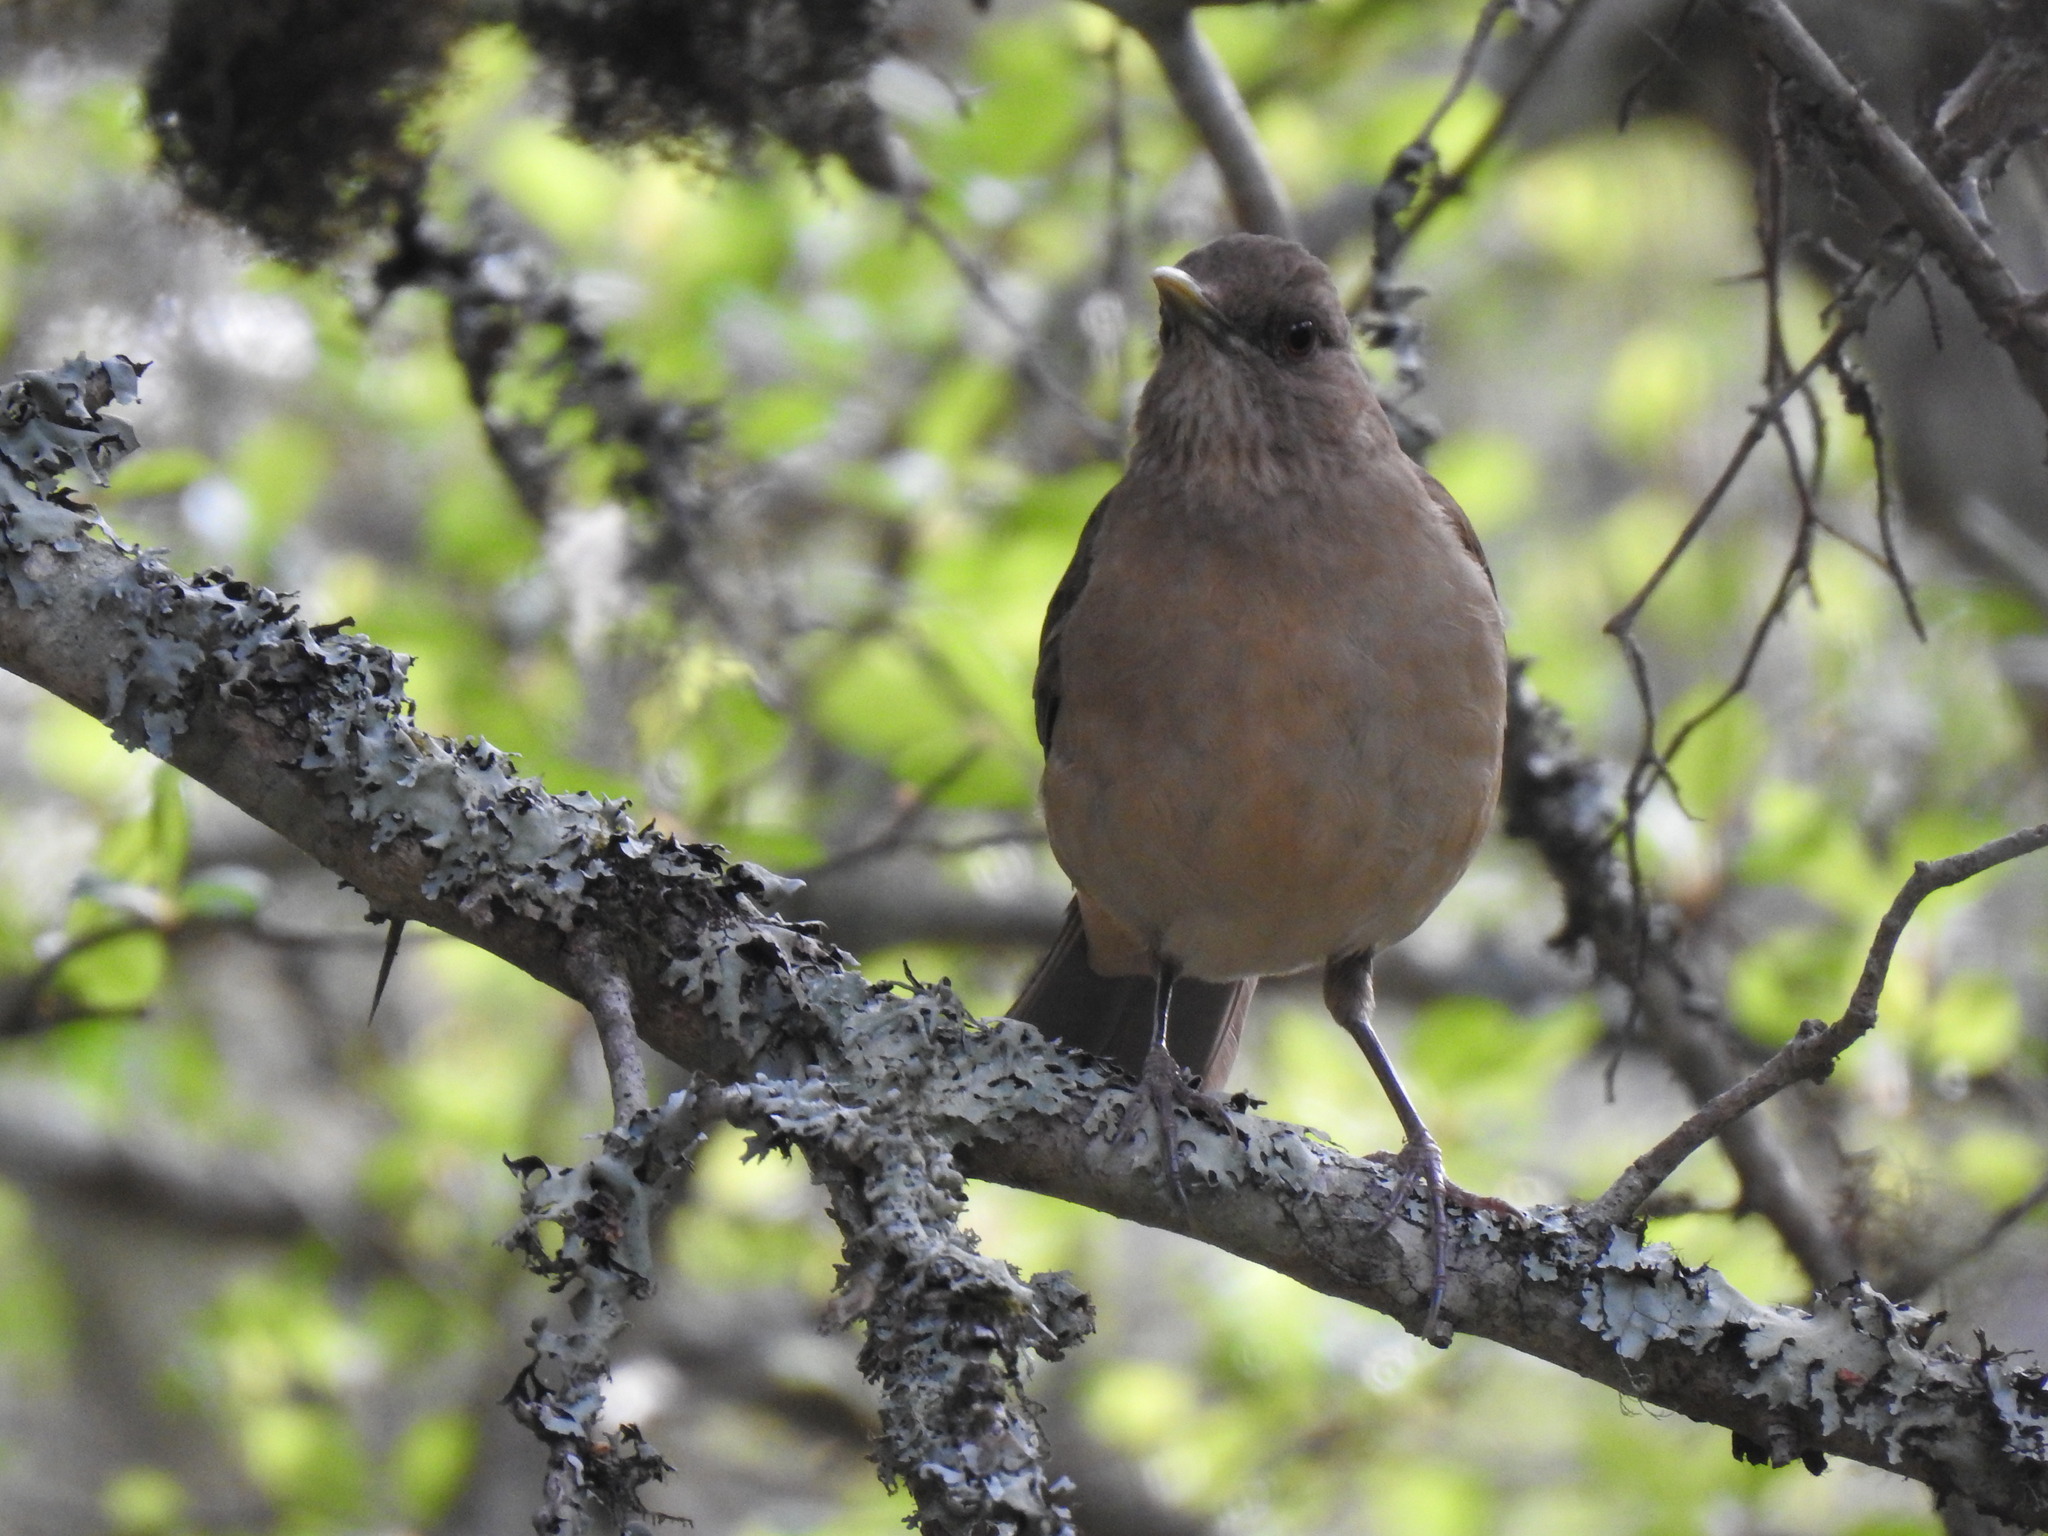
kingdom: Animalia
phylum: Chordata
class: Aves
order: Passeriformes
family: Turdidae
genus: Turdus
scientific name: Turdus grayi
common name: Clay-colored thrush
